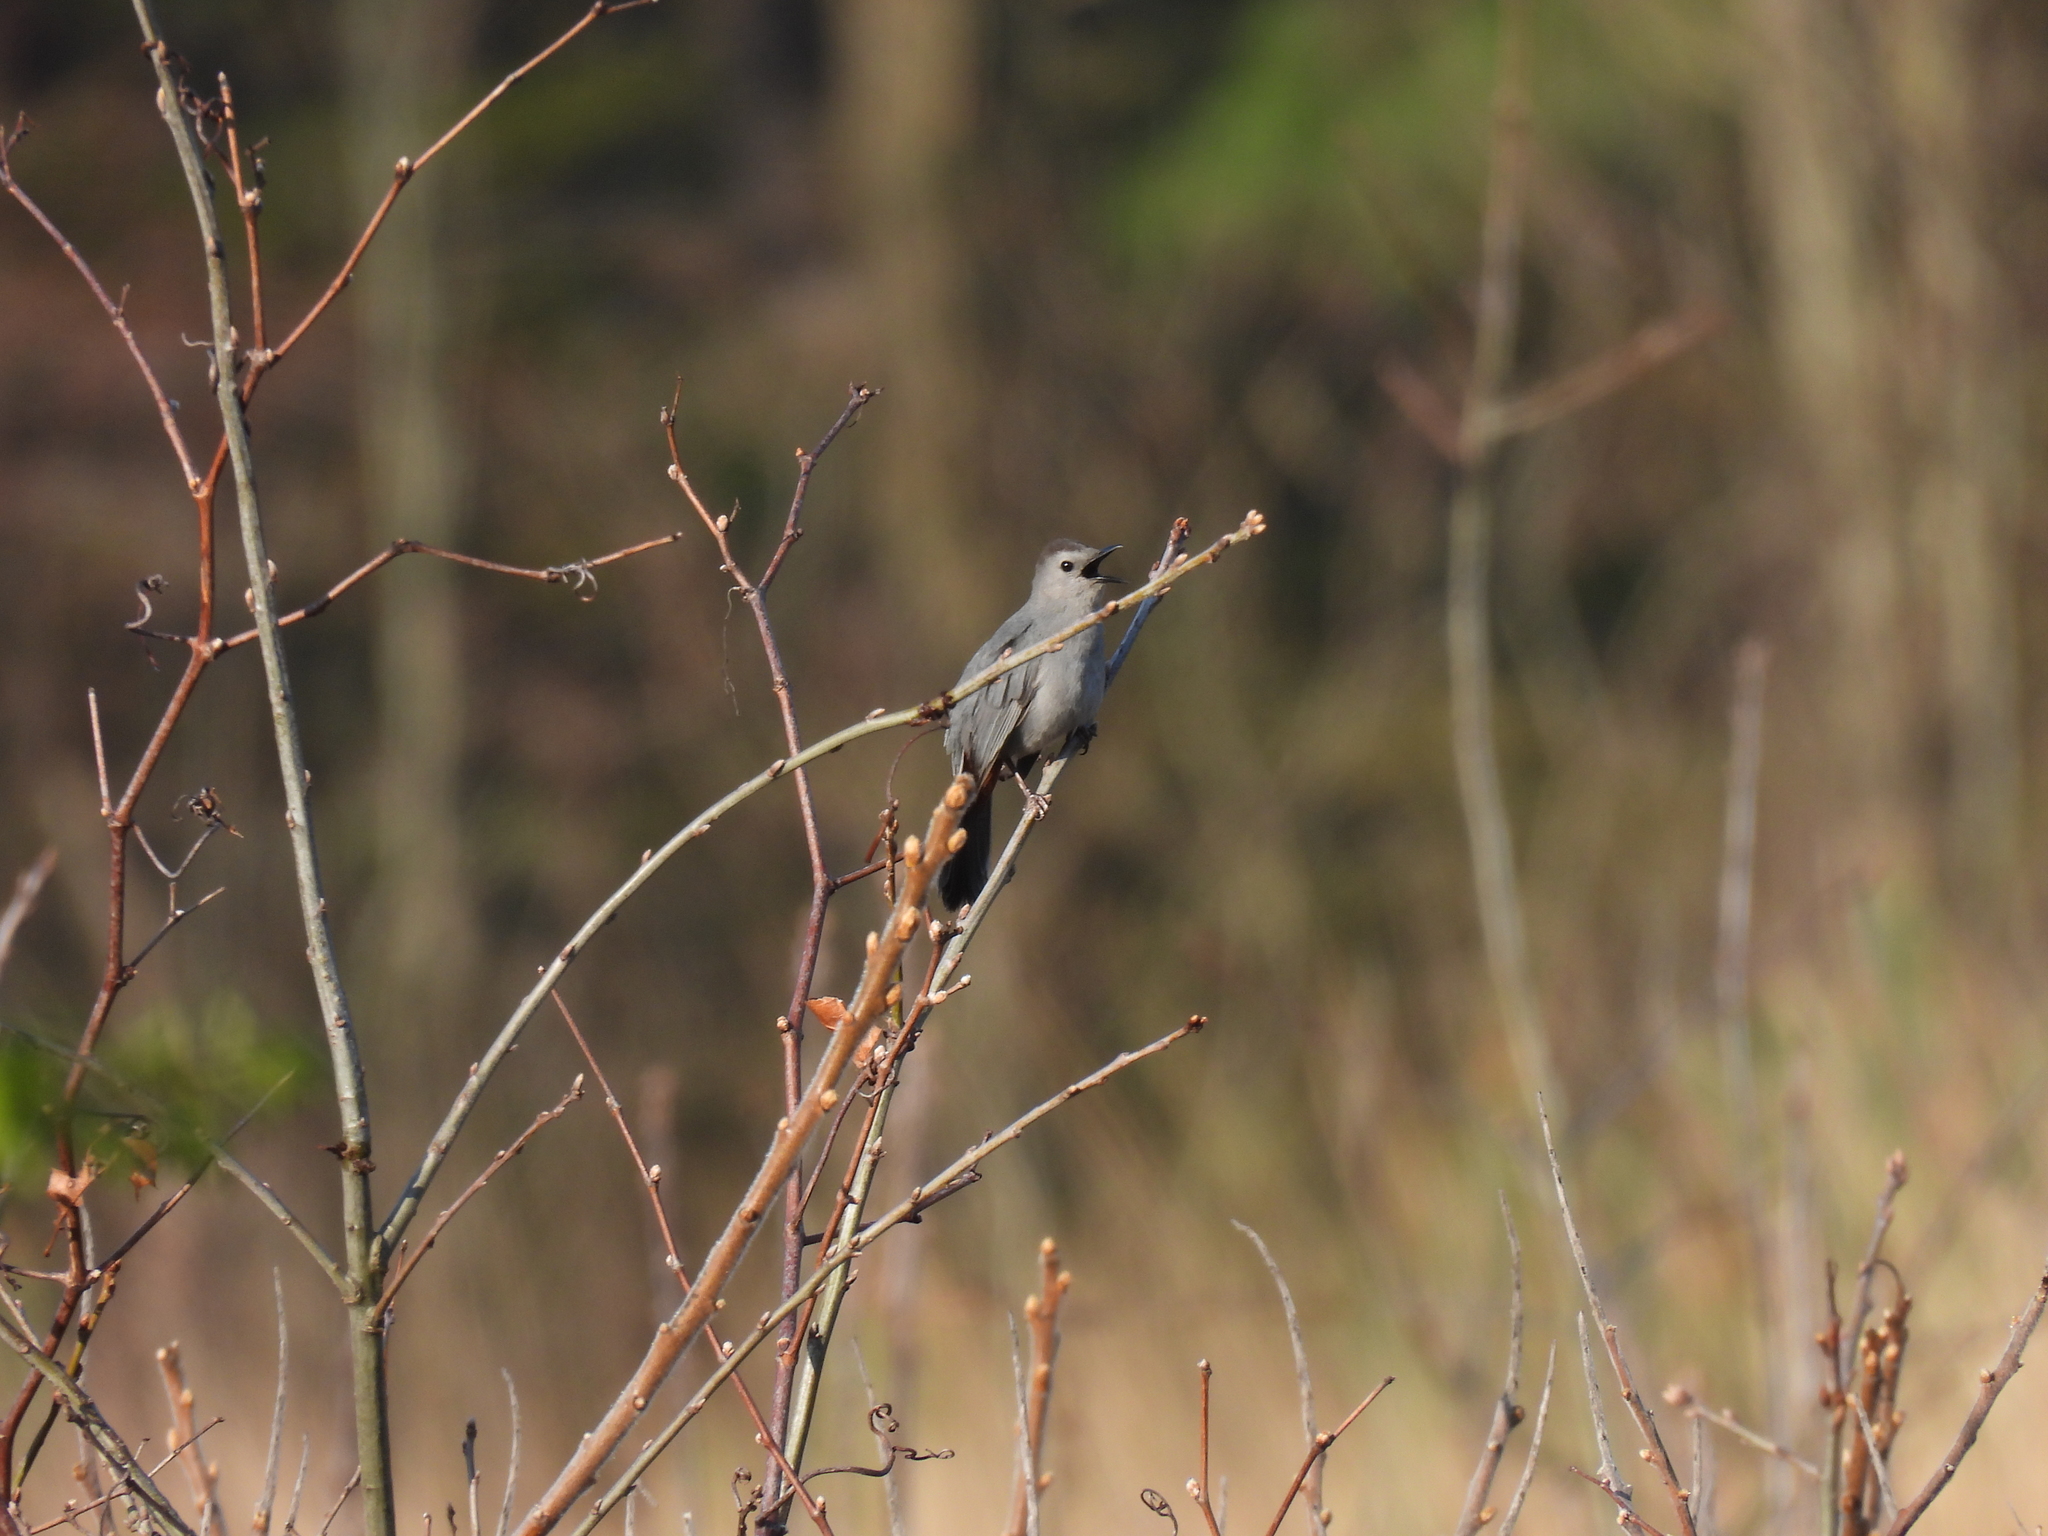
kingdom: Animalia
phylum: Chordata
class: Aves
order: Passeriformes
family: Mimidae
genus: Dumetella
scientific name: Dumetella carolinensis
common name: Gray catbird
